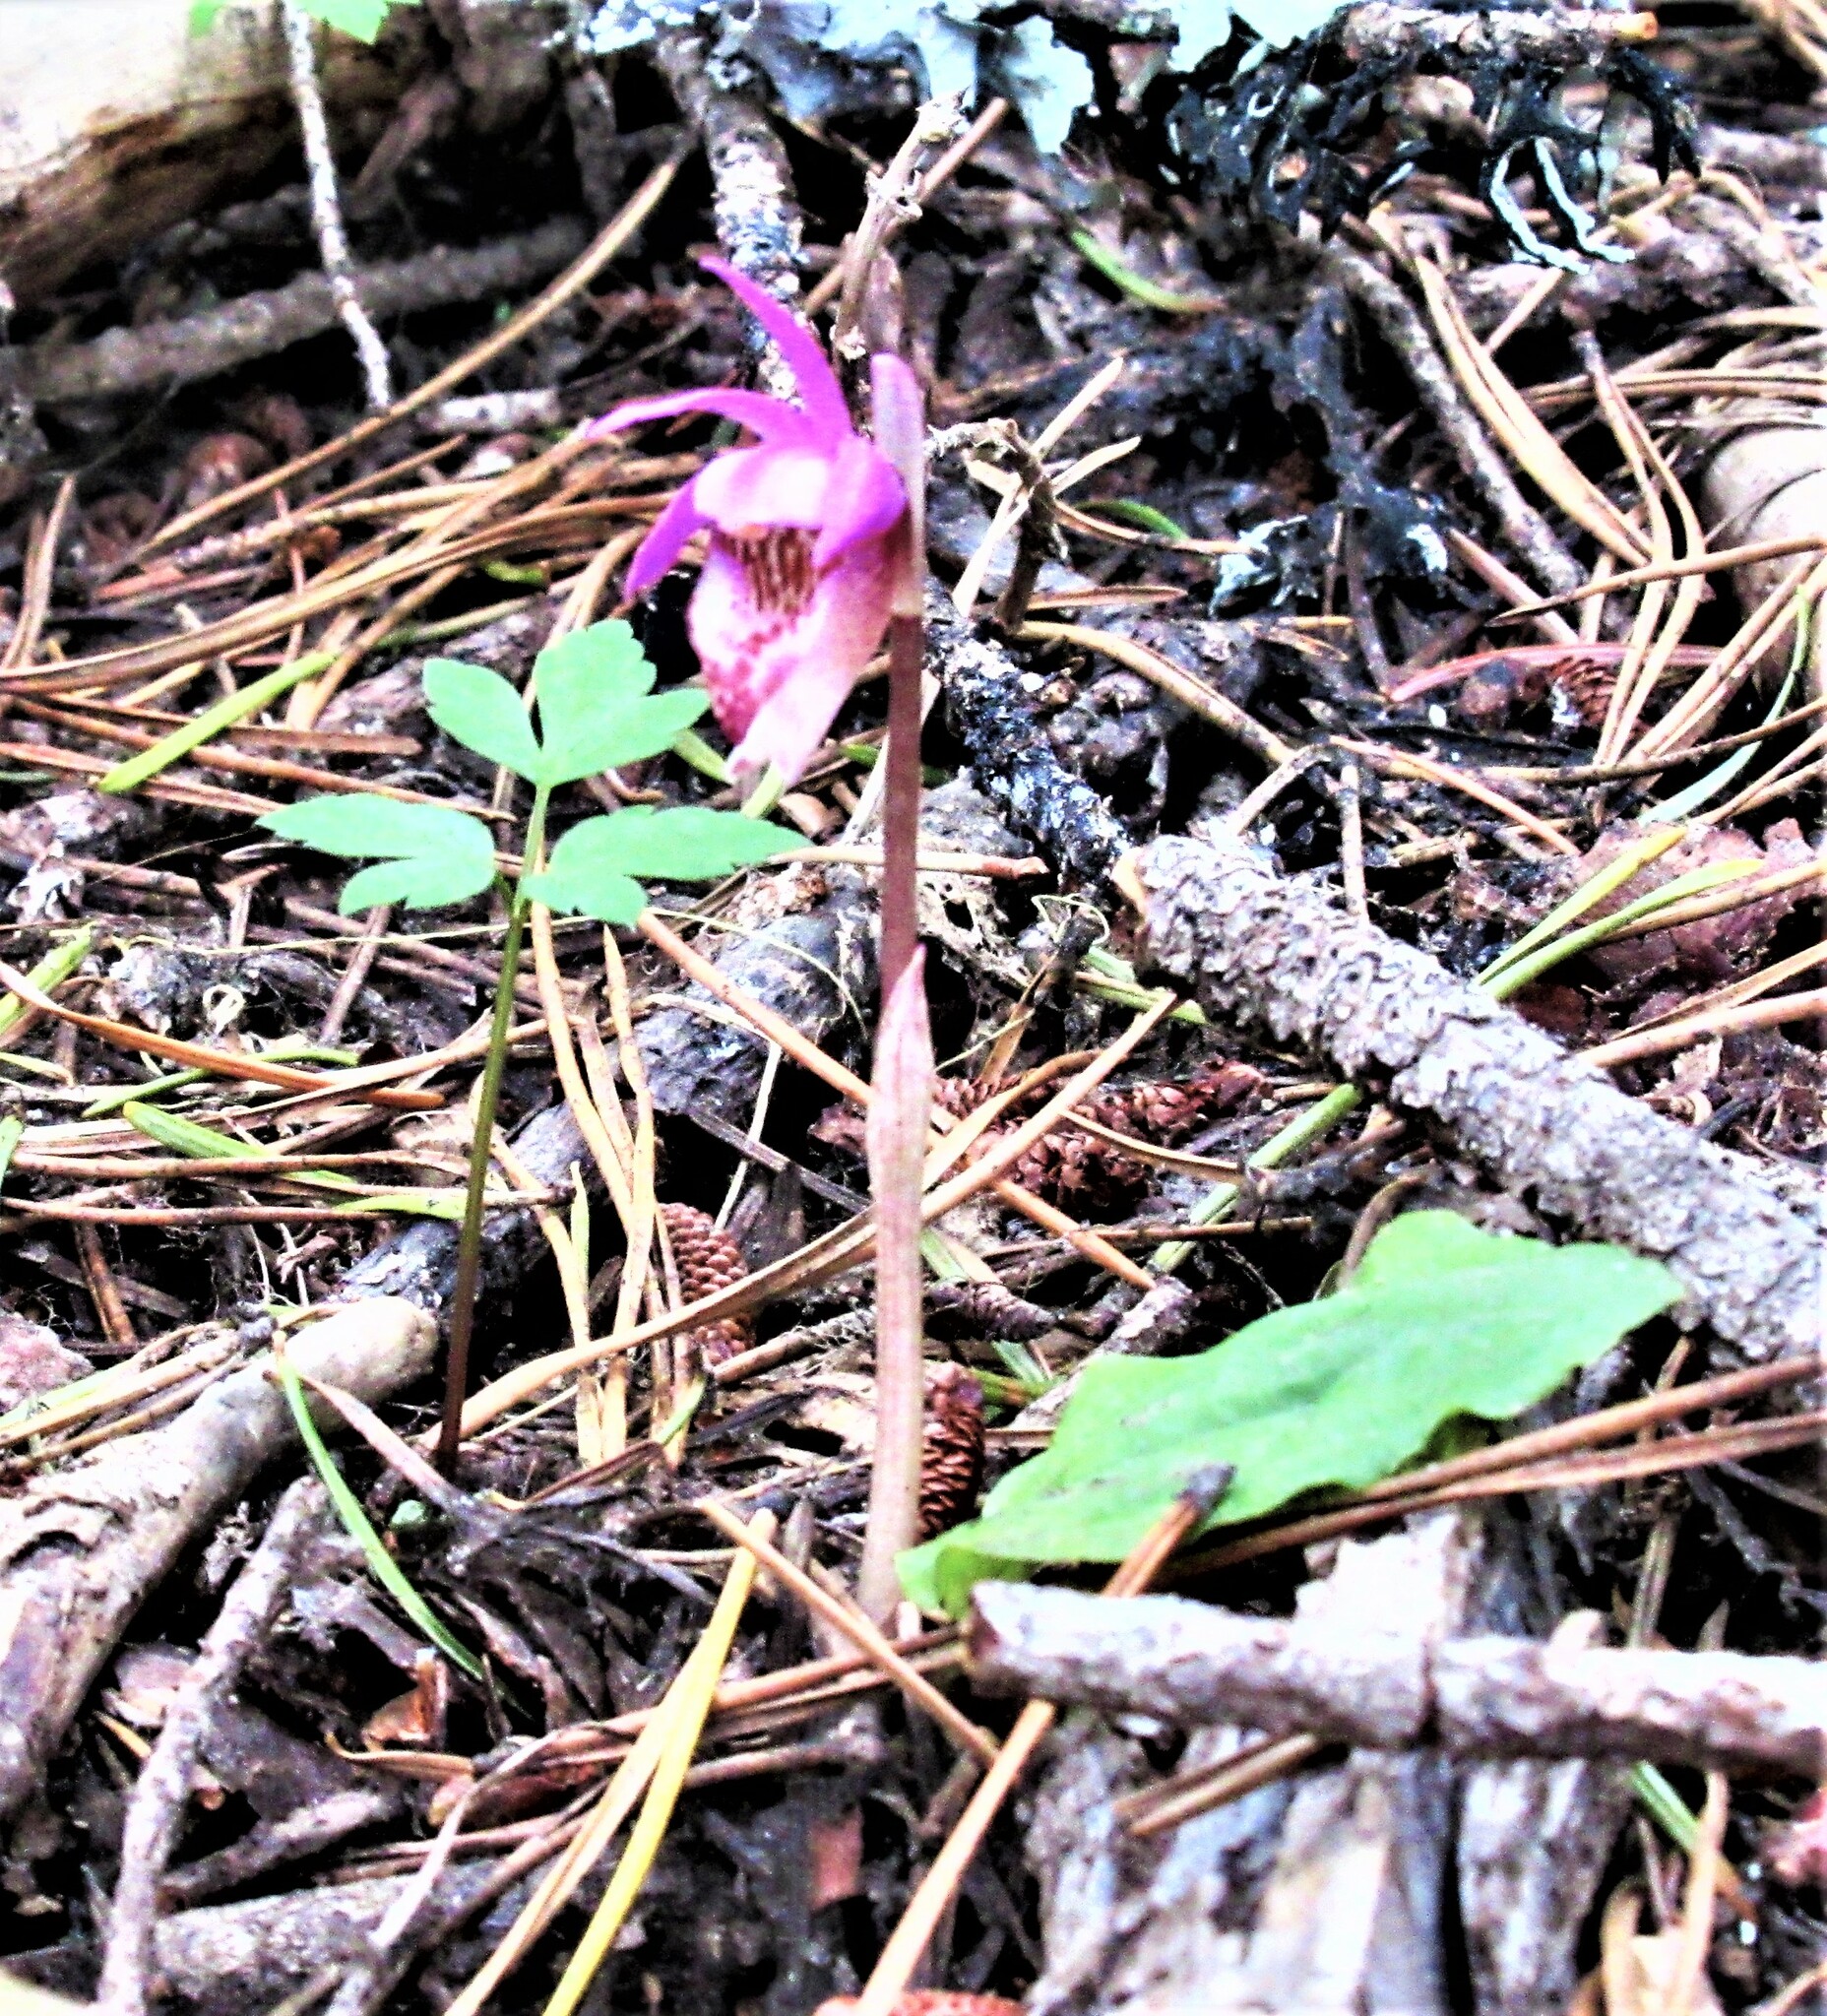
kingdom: Plantae
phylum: Tracheophyta
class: Liliopsida
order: Asparagales
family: Orchidaceae
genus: Calypso
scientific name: Calypso bulbosa
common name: Calypso
